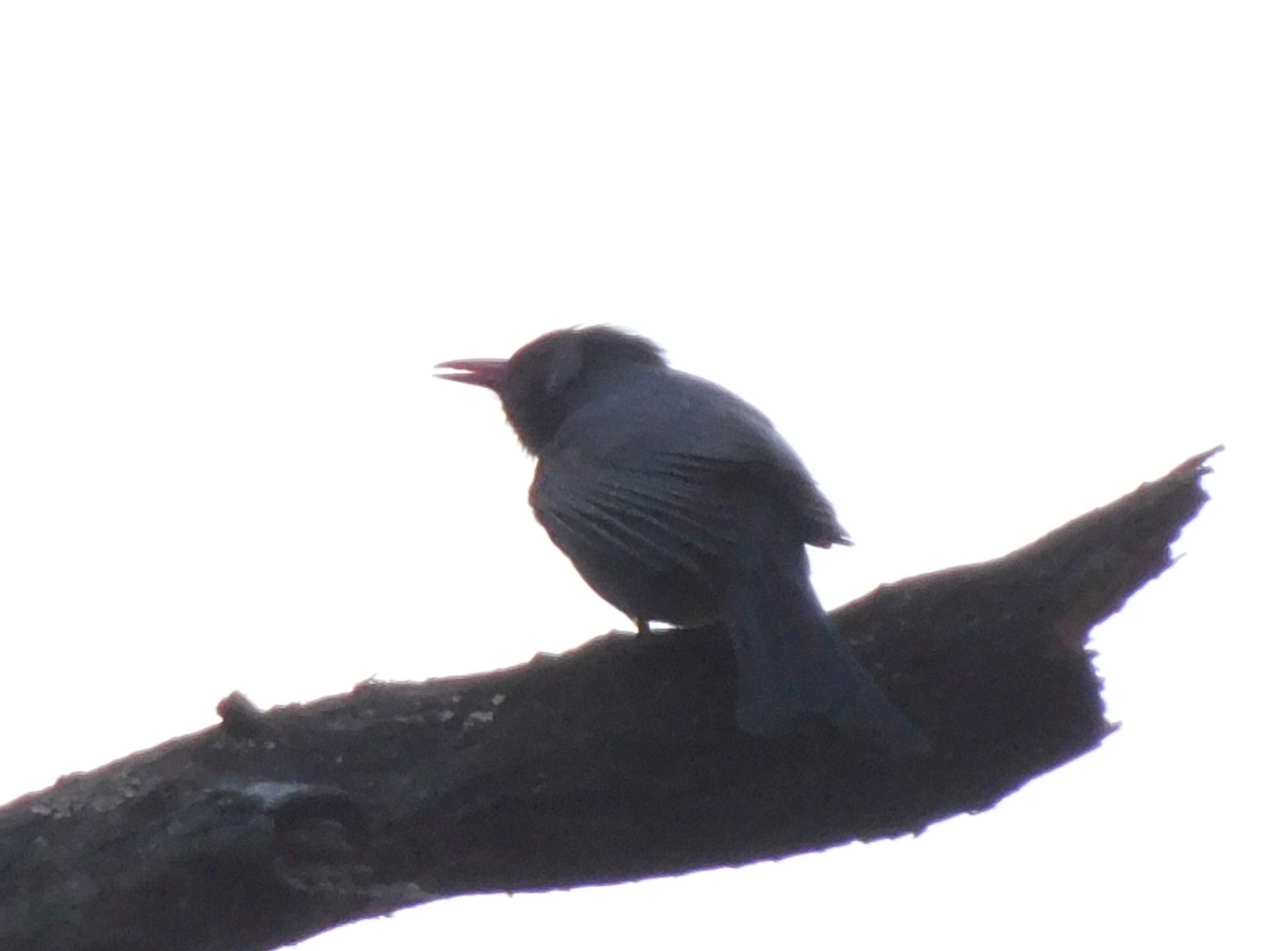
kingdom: Animalia
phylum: Chordata
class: Aves
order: Passeriformes
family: Pycnonotidae
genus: Hypsipetes
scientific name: Hypsipetes leucocephalus
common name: Black bulbul
